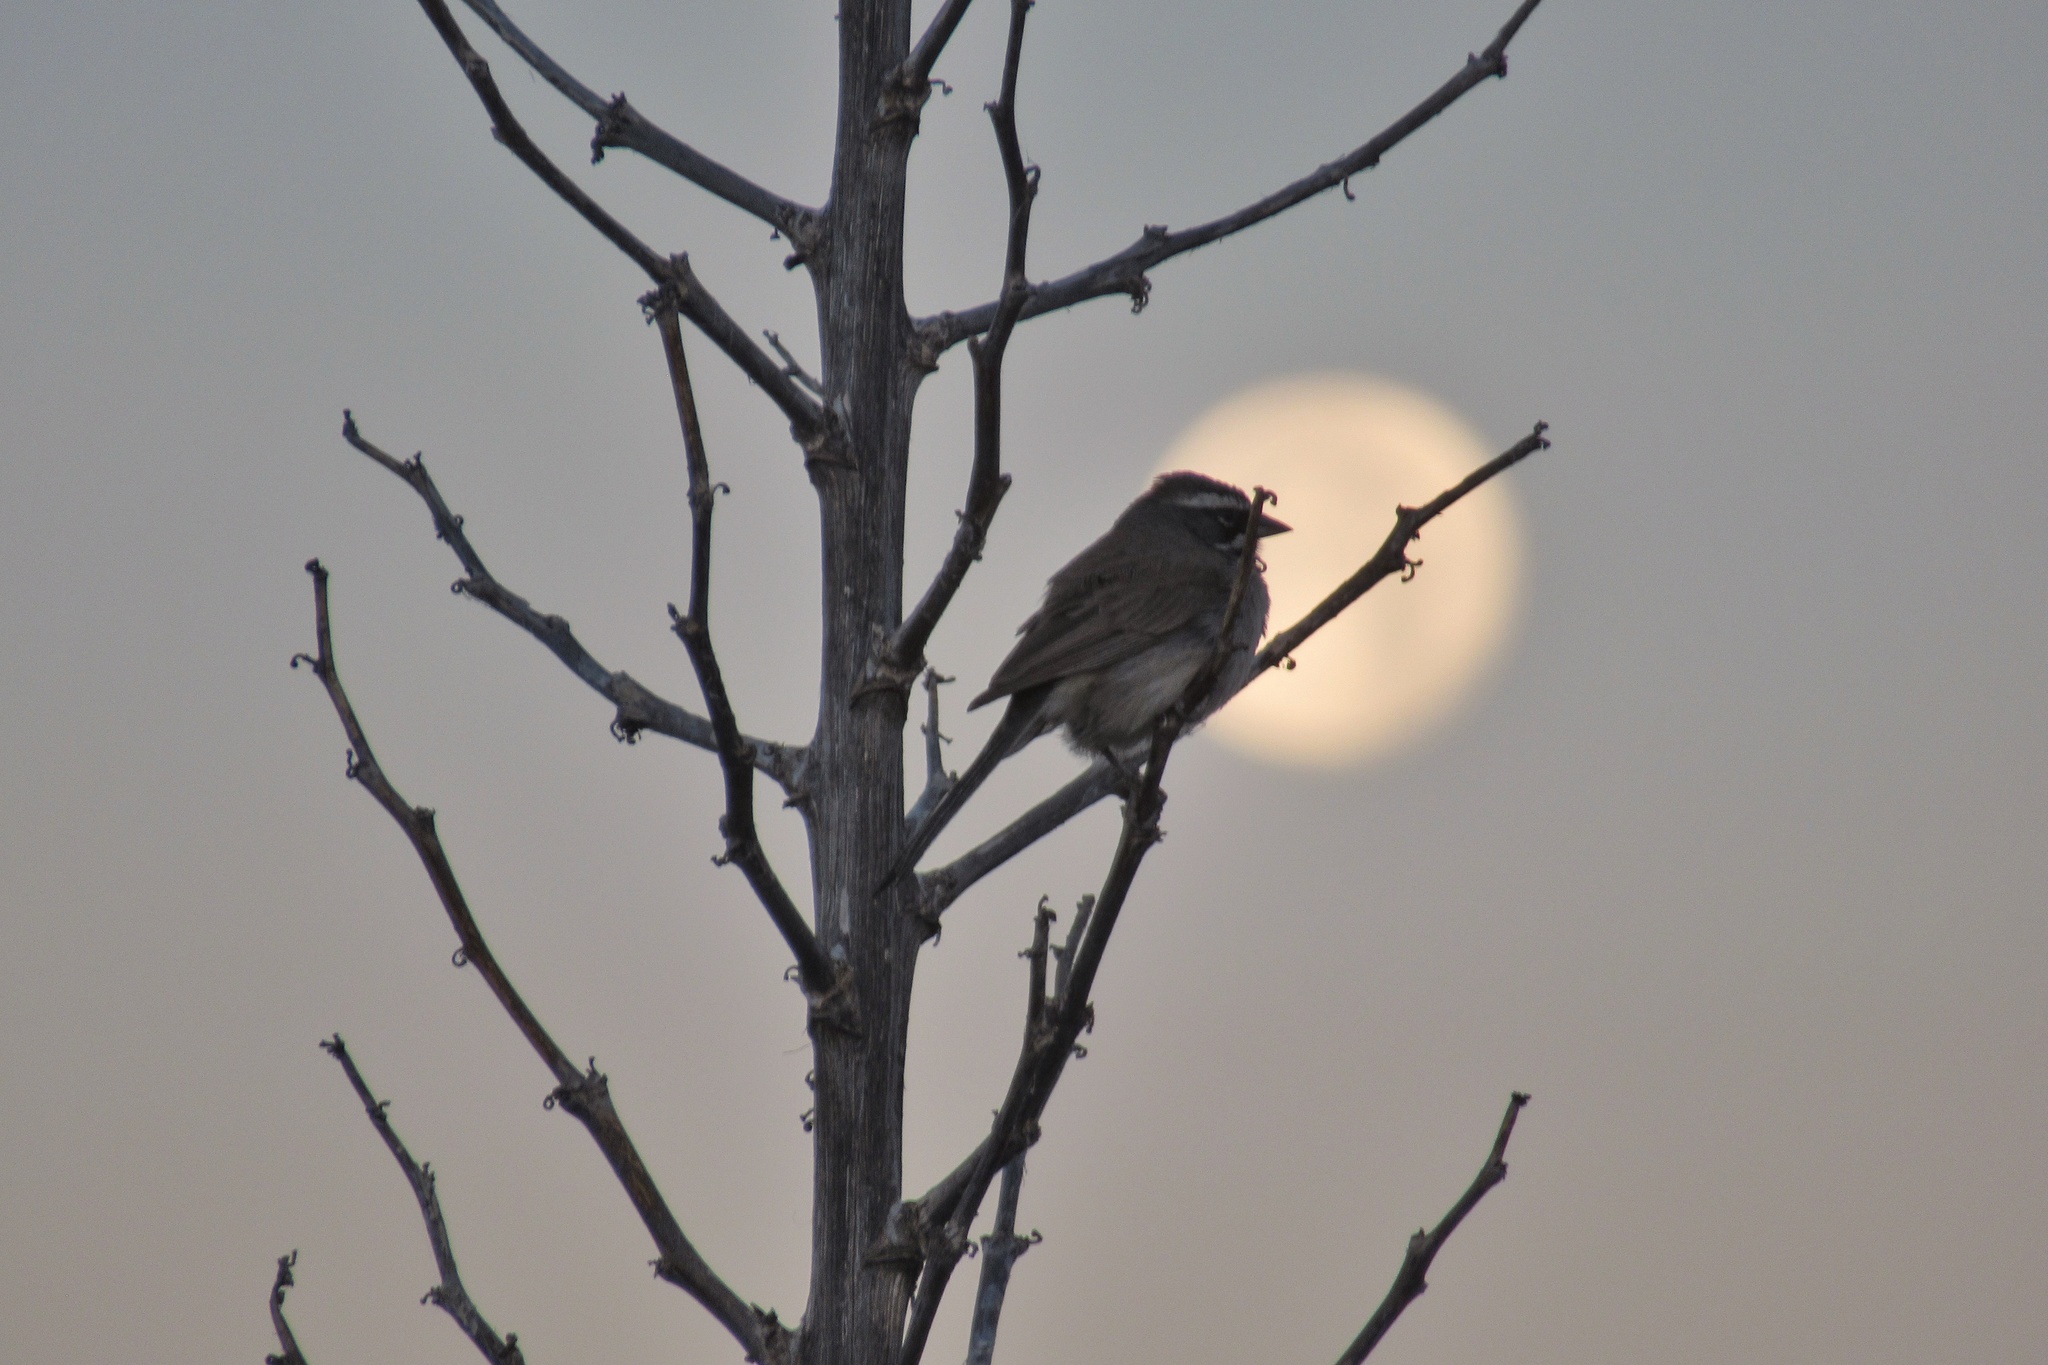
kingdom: Animalia
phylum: Chordata
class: Aves
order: Passeriformes
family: Passerellidae
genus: Amphispiza
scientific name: Amphispiza bilineata
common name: Black-throated sparrow
